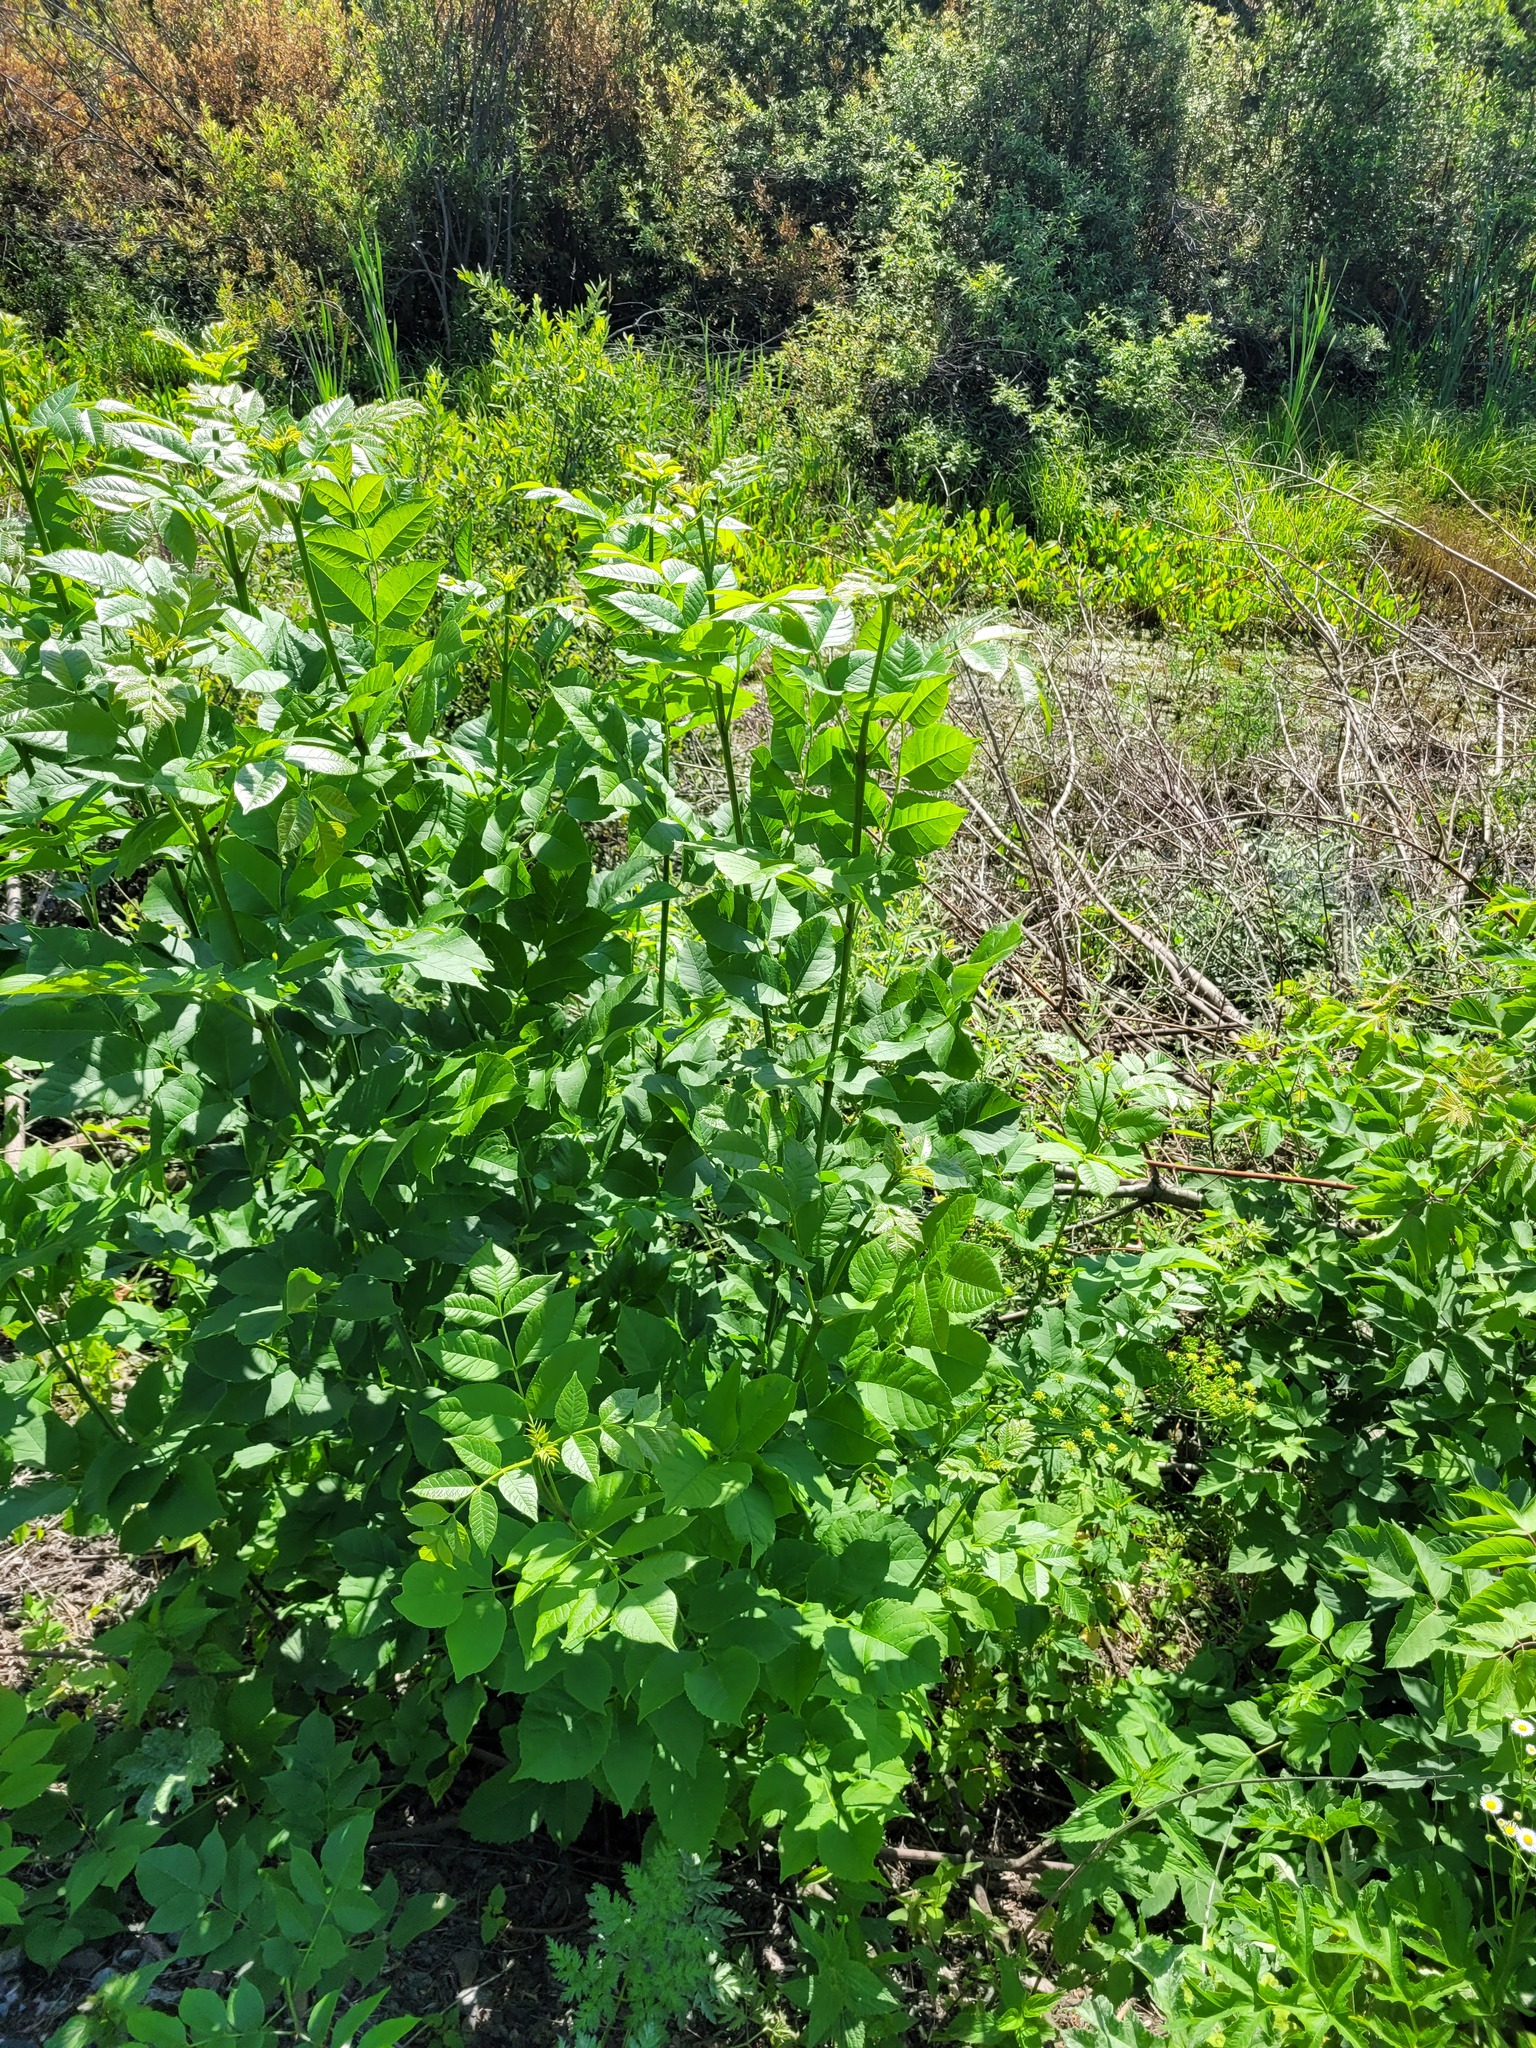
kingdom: Plantae
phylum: Tracheophyta
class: Magnoliopsida
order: Lamiales
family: Oleaceae
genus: Fraxinus
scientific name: Fraxinus pennsylvanica
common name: Green ash
